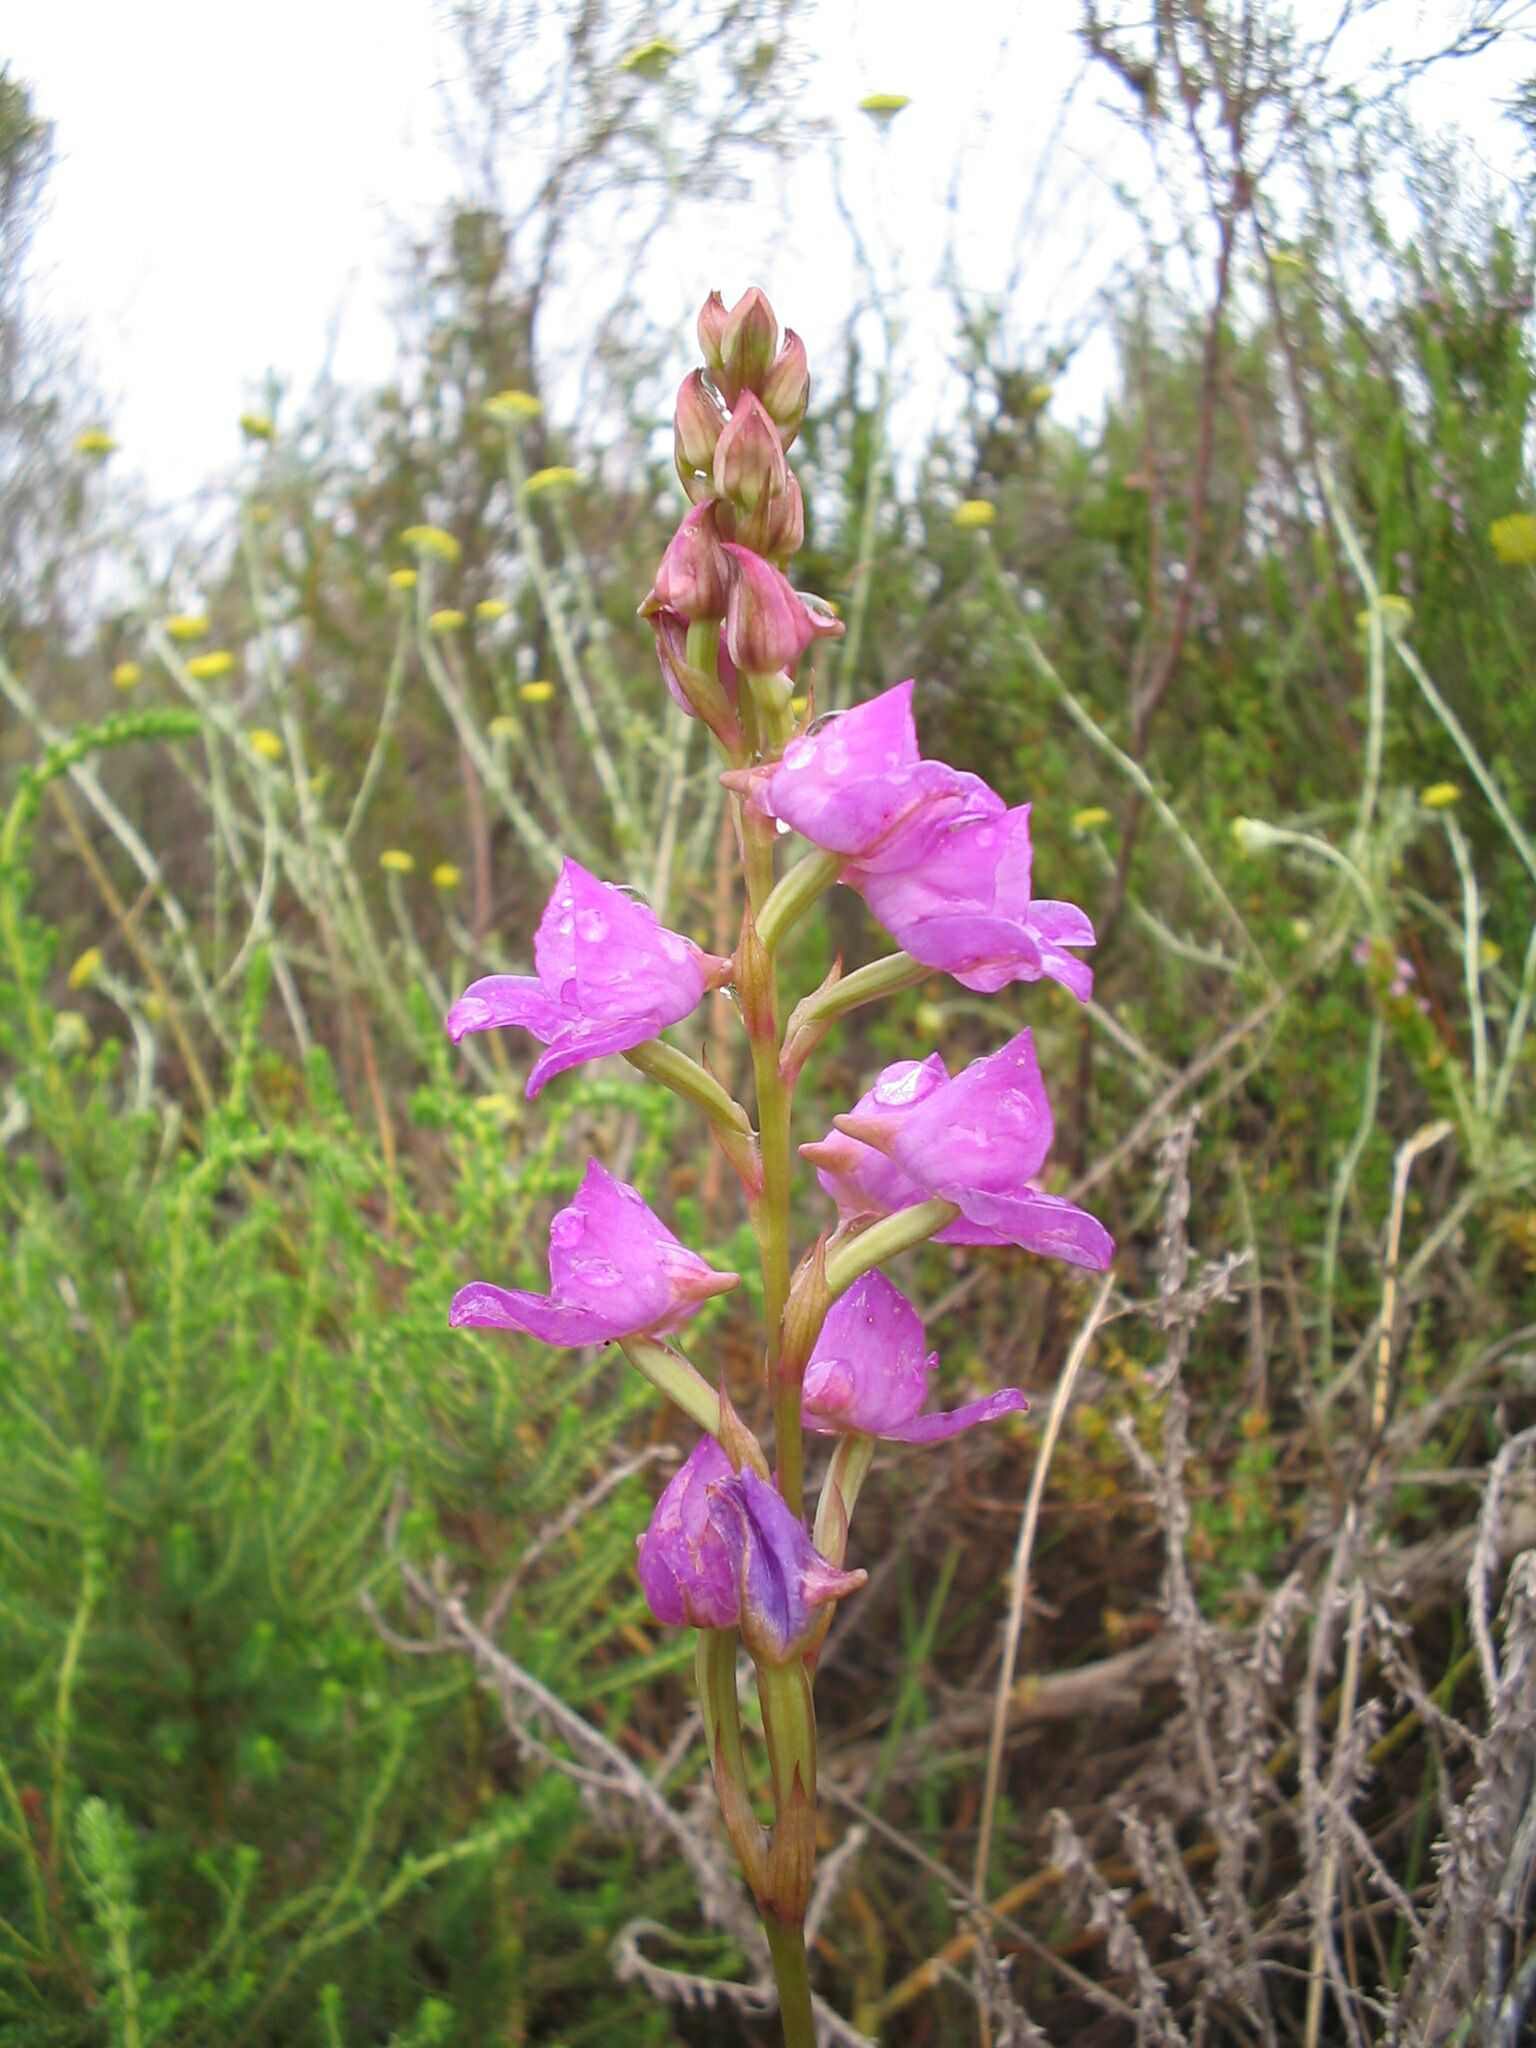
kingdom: Plantae
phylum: Tracheophyta
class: Liliopsida
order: Asparagales
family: Orchidaceae
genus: Disa
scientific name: Disa procera
